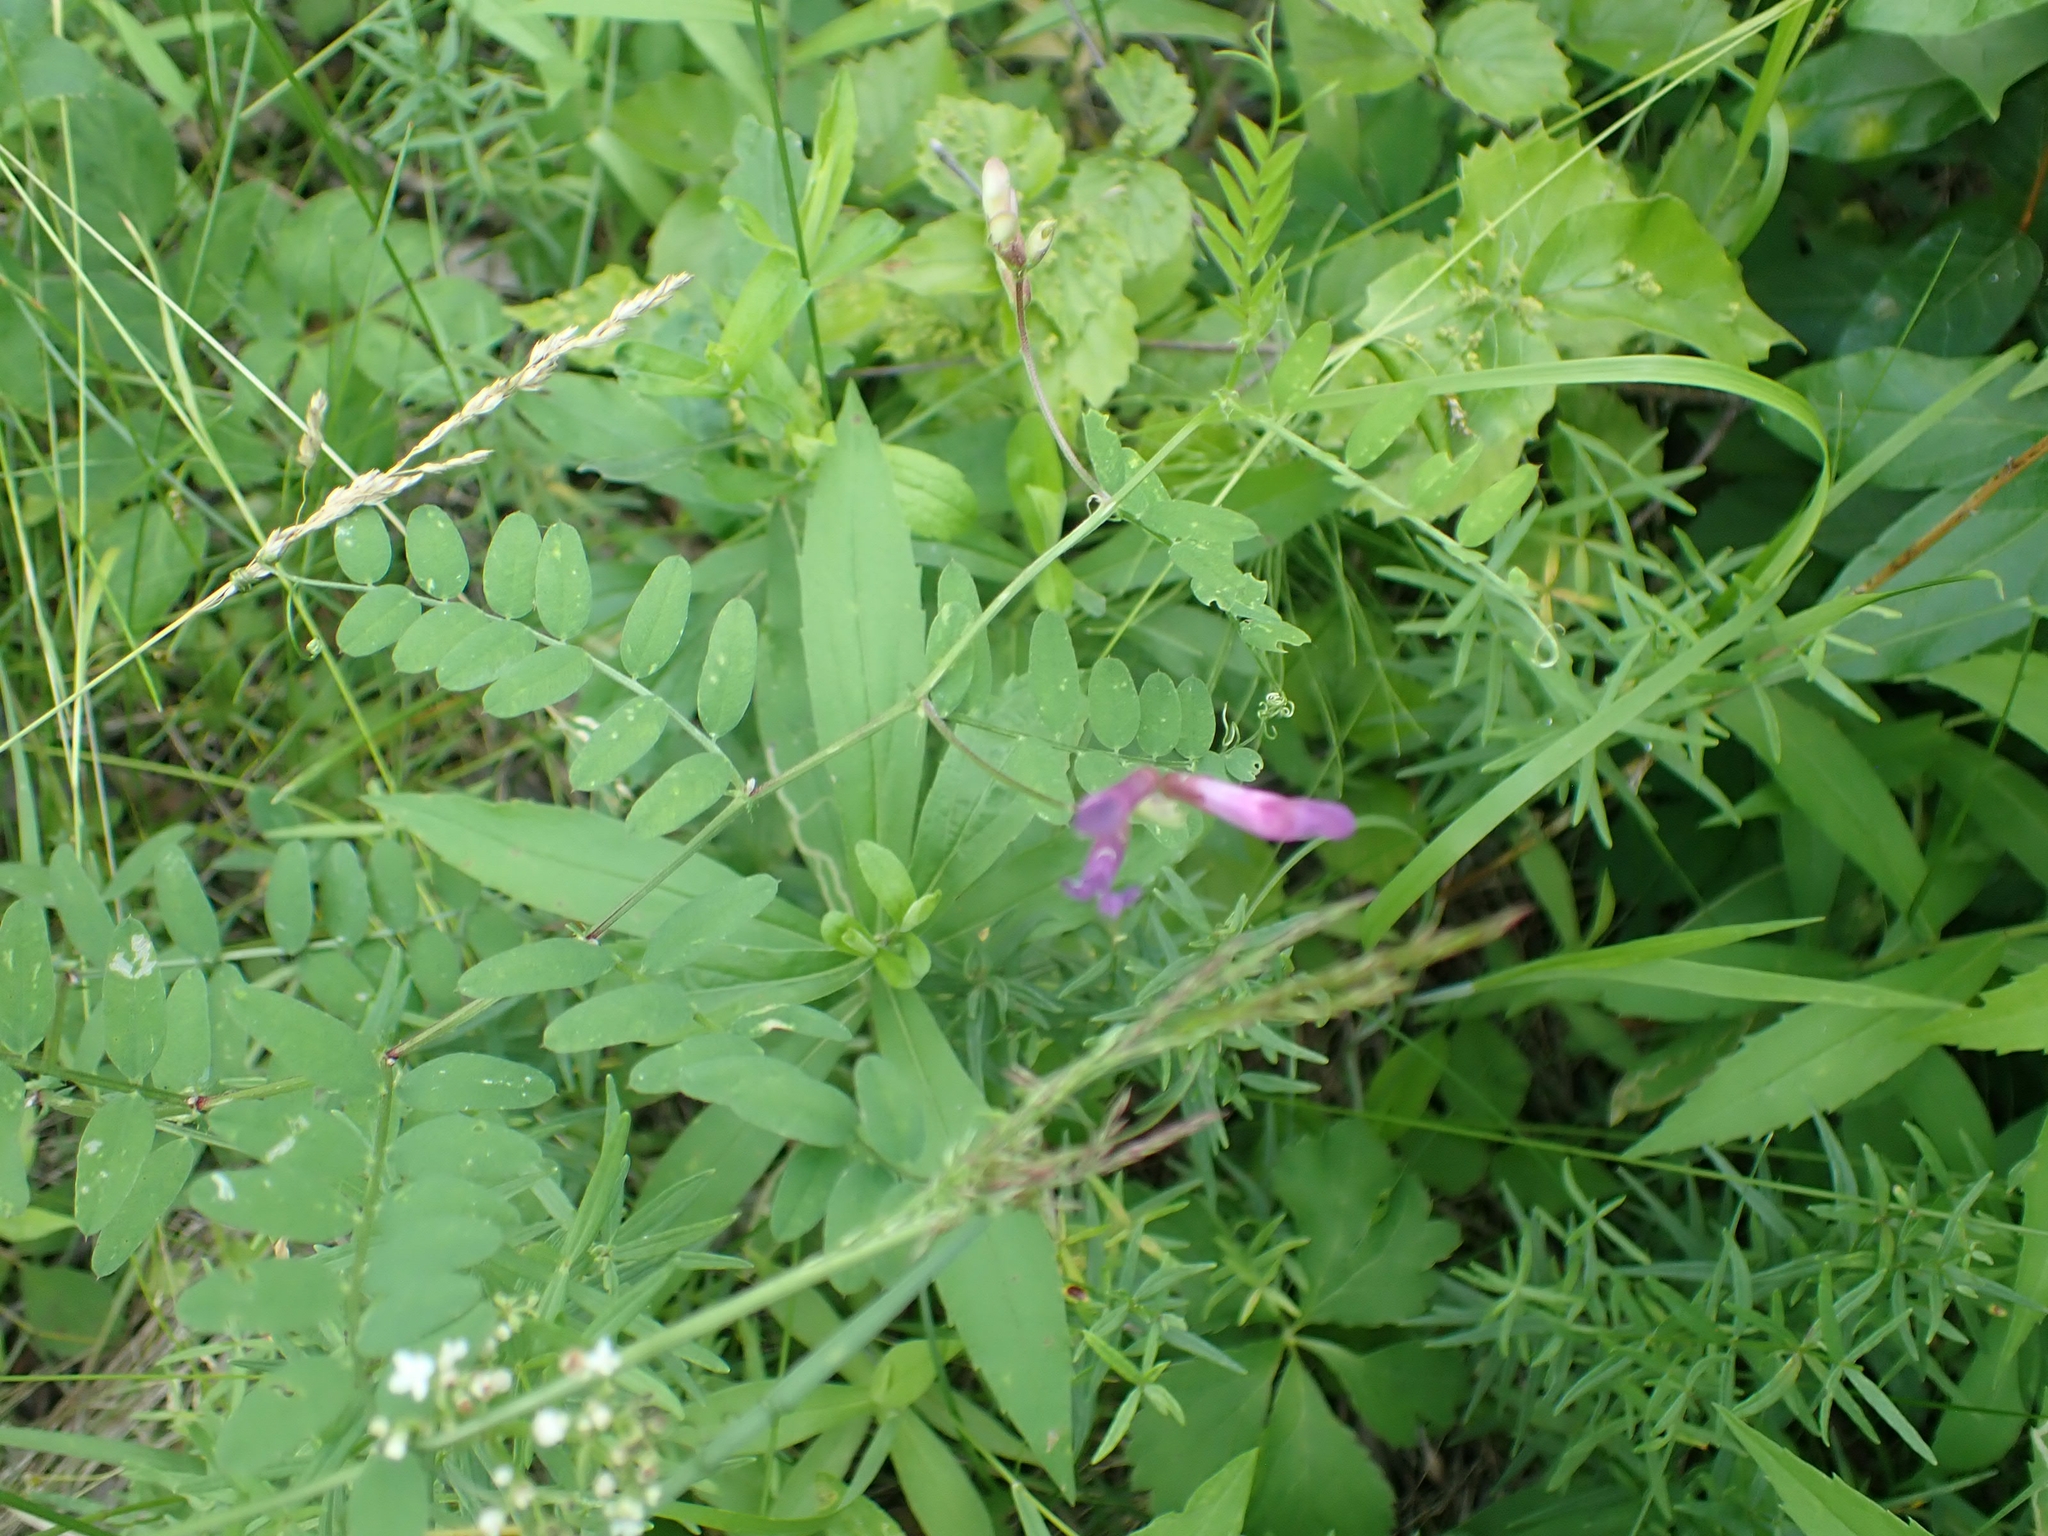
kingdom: Plantae
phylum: Tracheophyta
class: Magnoliopsida
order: Fabales
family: Fabaceae
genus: Vicia
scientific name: Vicia americana
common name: American vetch
